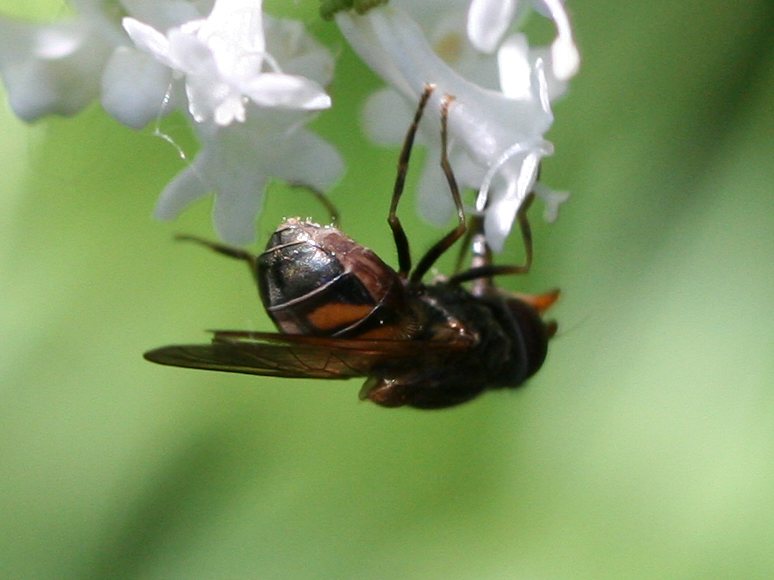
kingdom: Animalia
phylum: Arthropoda
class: Insecta
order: Diptera
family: Syrphidae
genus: Rhingia
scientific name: Rhingia nasica
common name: American snout fly
